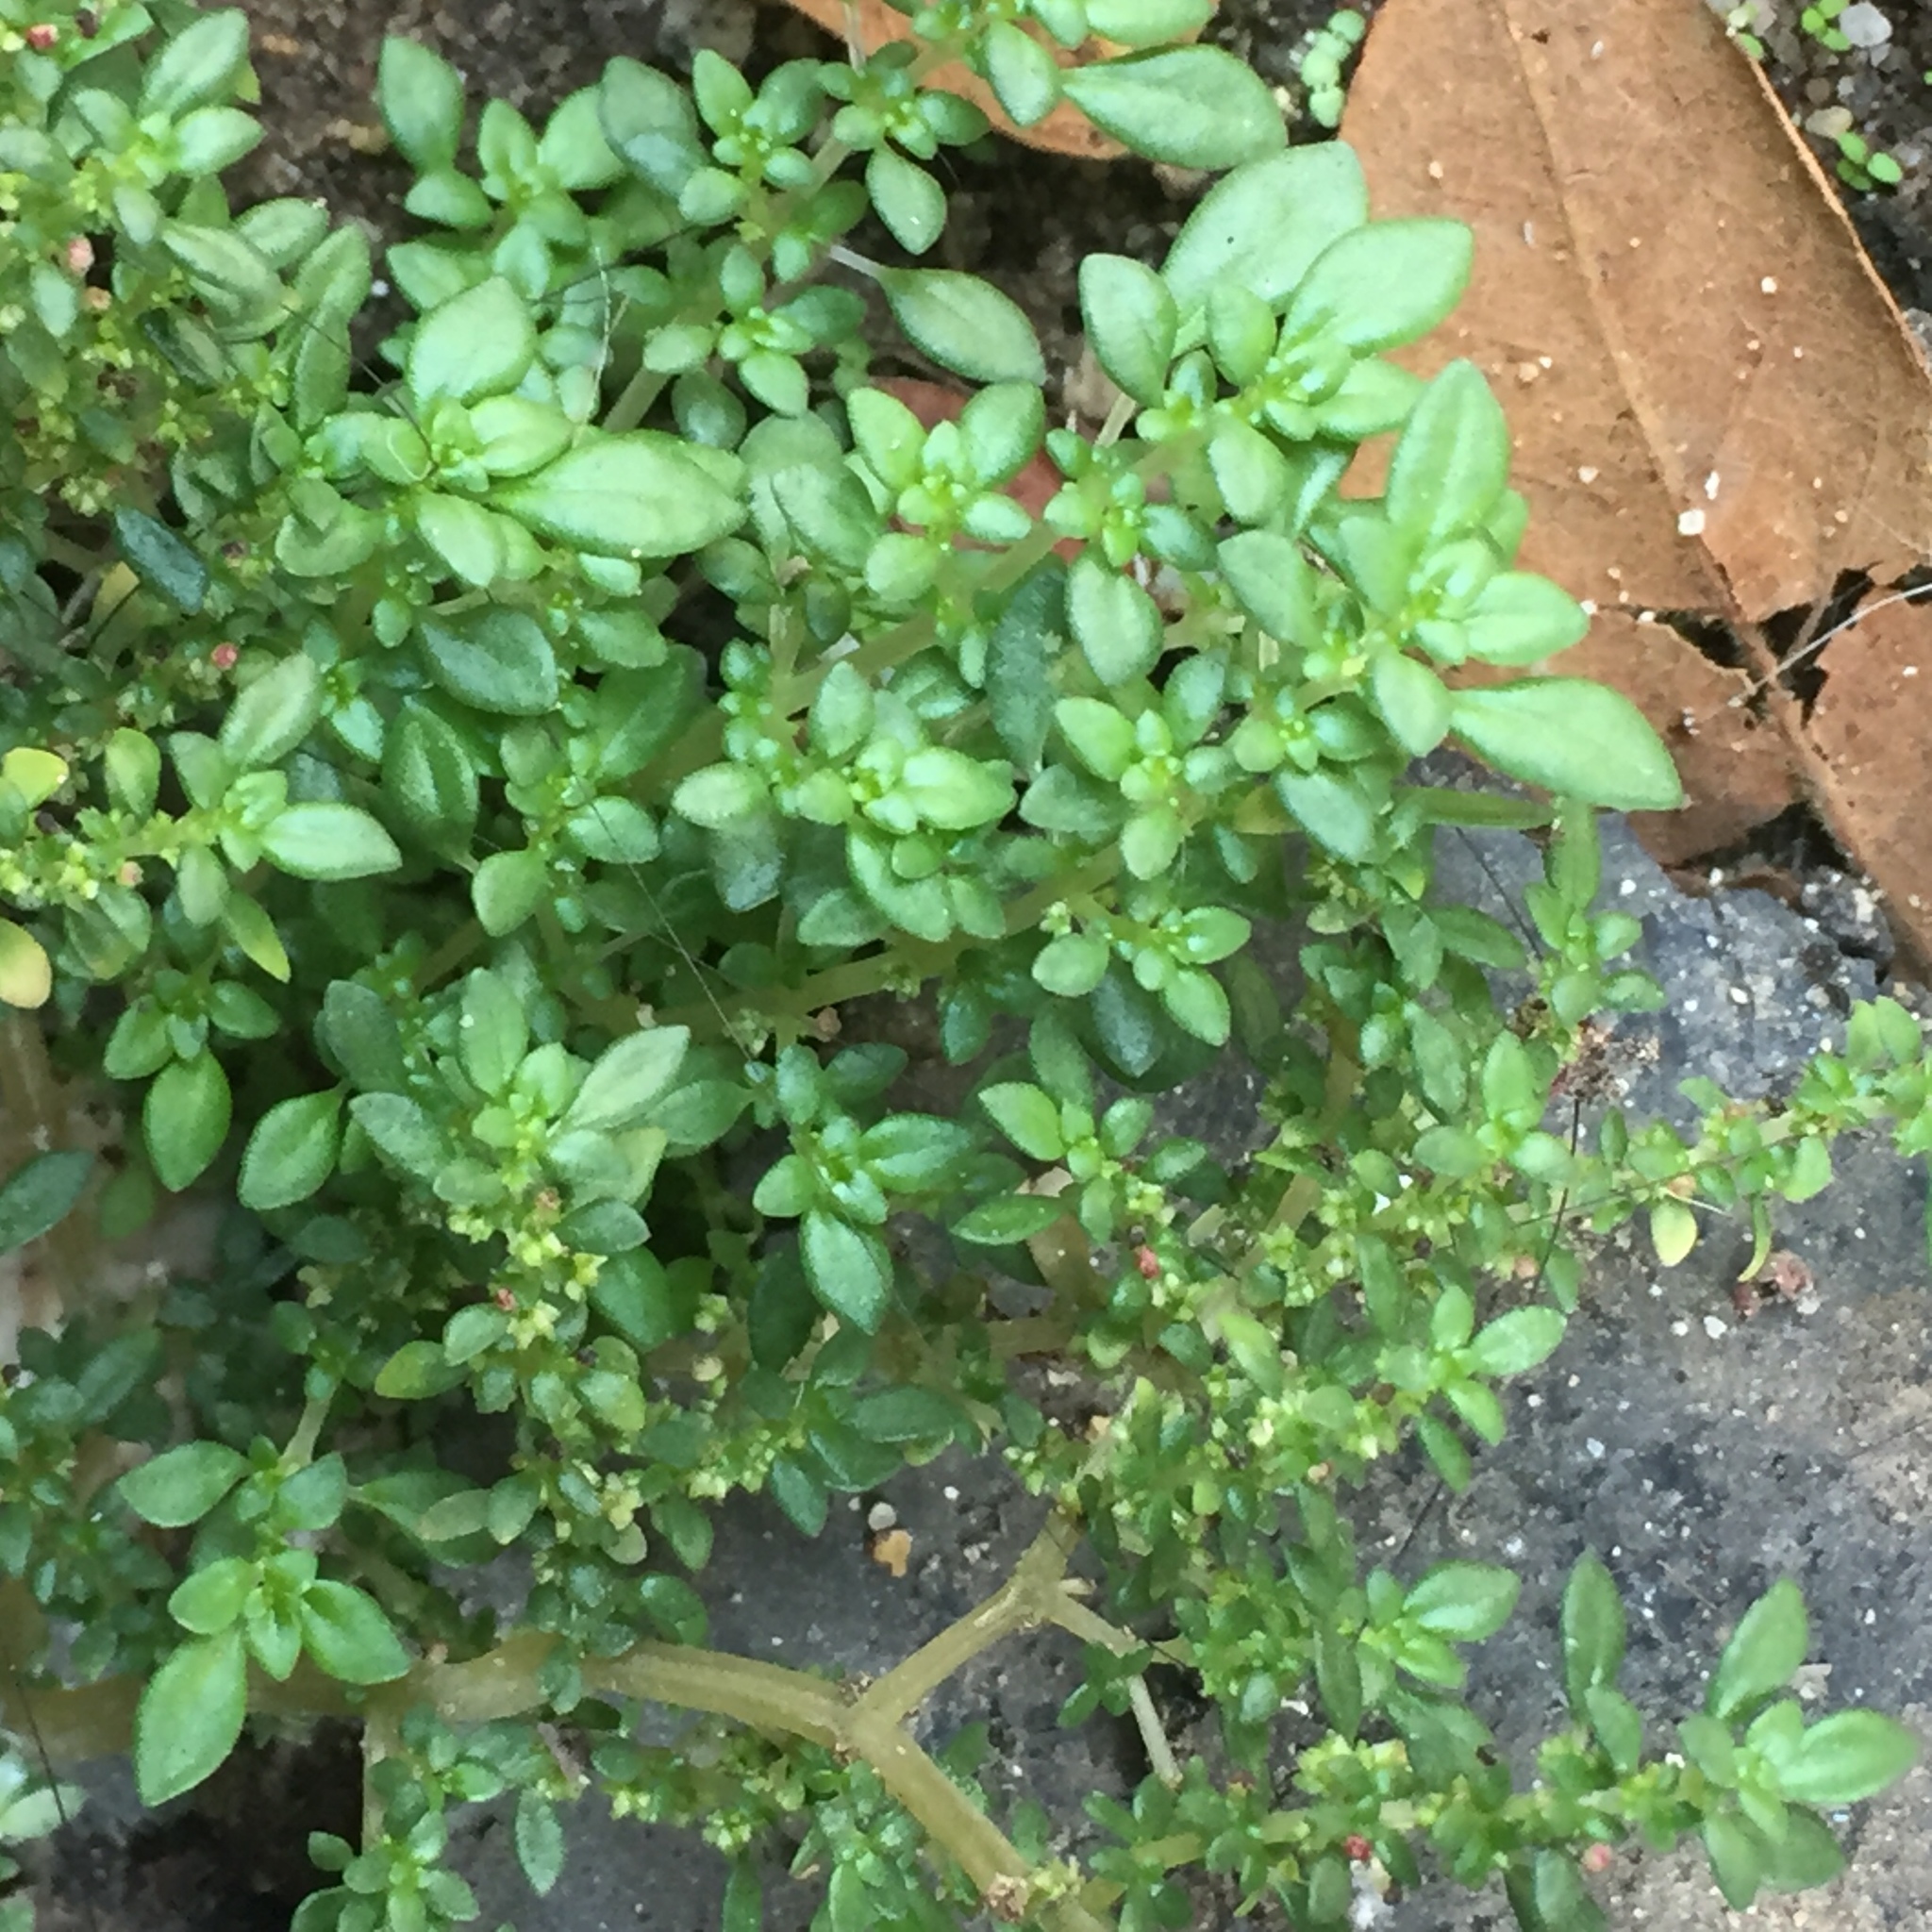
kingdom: Plantae
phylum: Tracheophyta
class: Magnoliopsida
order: Rosales
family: Urticaceae
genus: Pilea
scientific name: Pilea microphylla
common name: Artillery-plant
